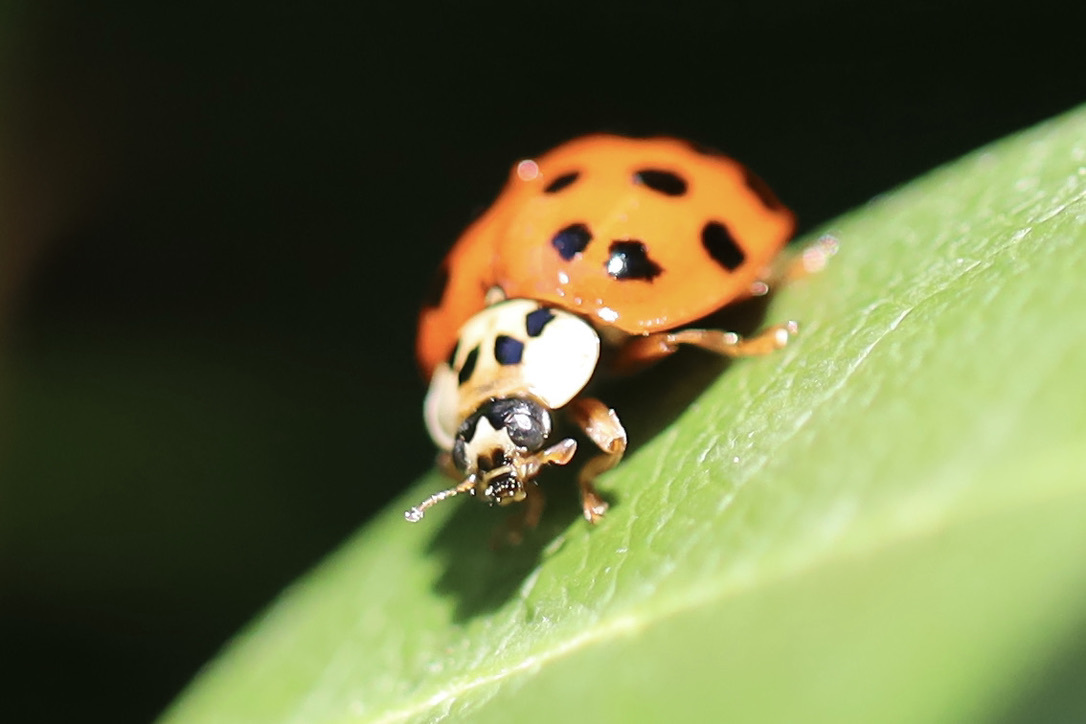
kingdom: Animalia
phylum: Arthropoda
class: Insecta
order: Coleoptera
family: Coccinellidae
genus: Harmonia
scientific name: Harmonia axyridis
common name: Harlequin ladybird
